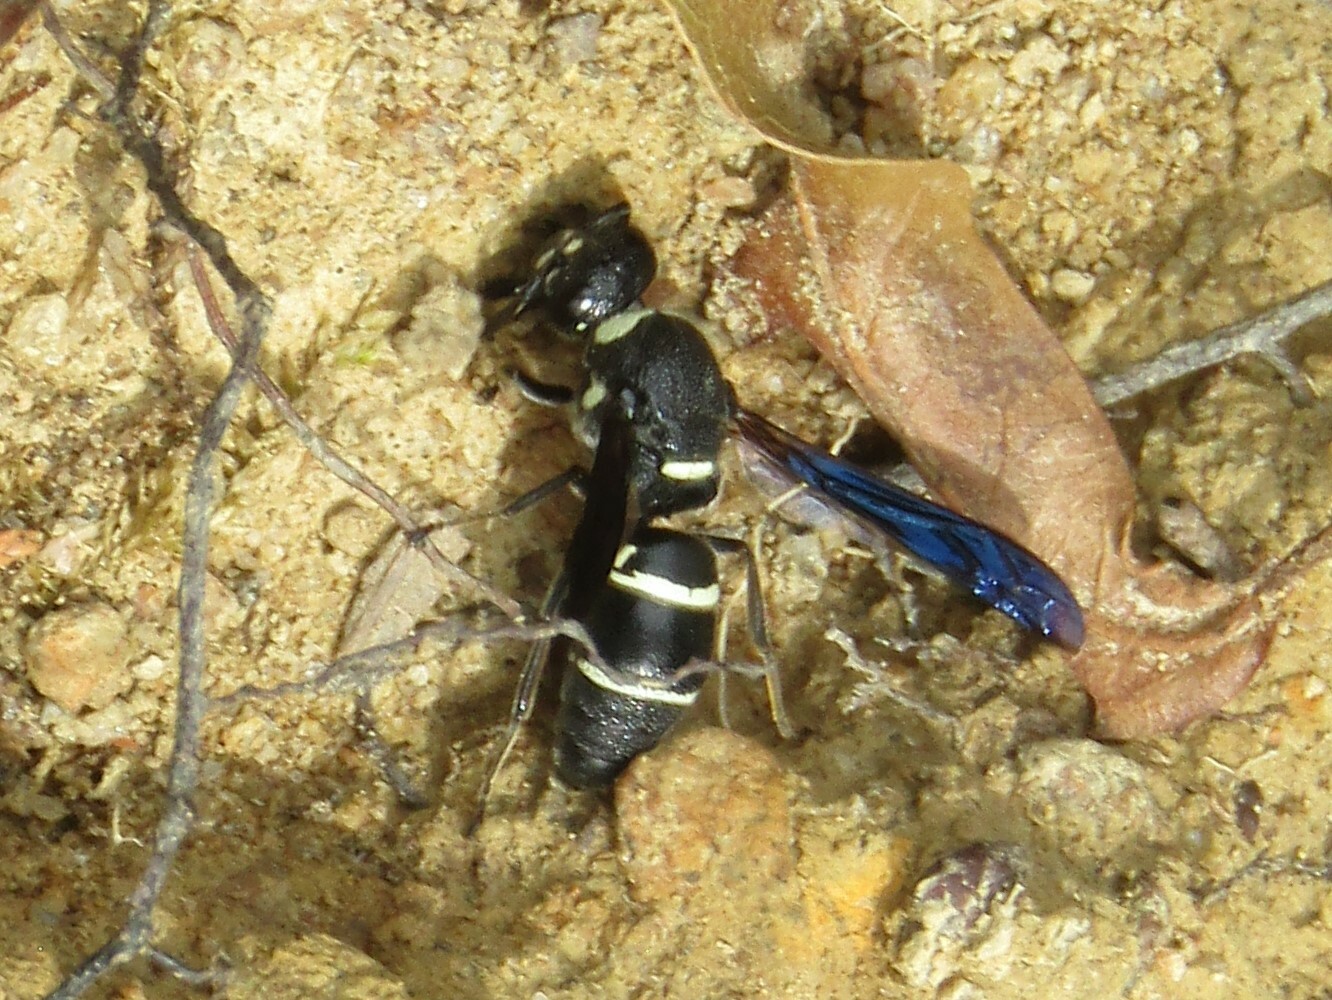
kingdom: Animalia
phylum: Arthropoda
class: Insecta
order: Hymenoptera
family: Eumenidae
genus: Euodynerus
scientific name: Euodynerus megaera
